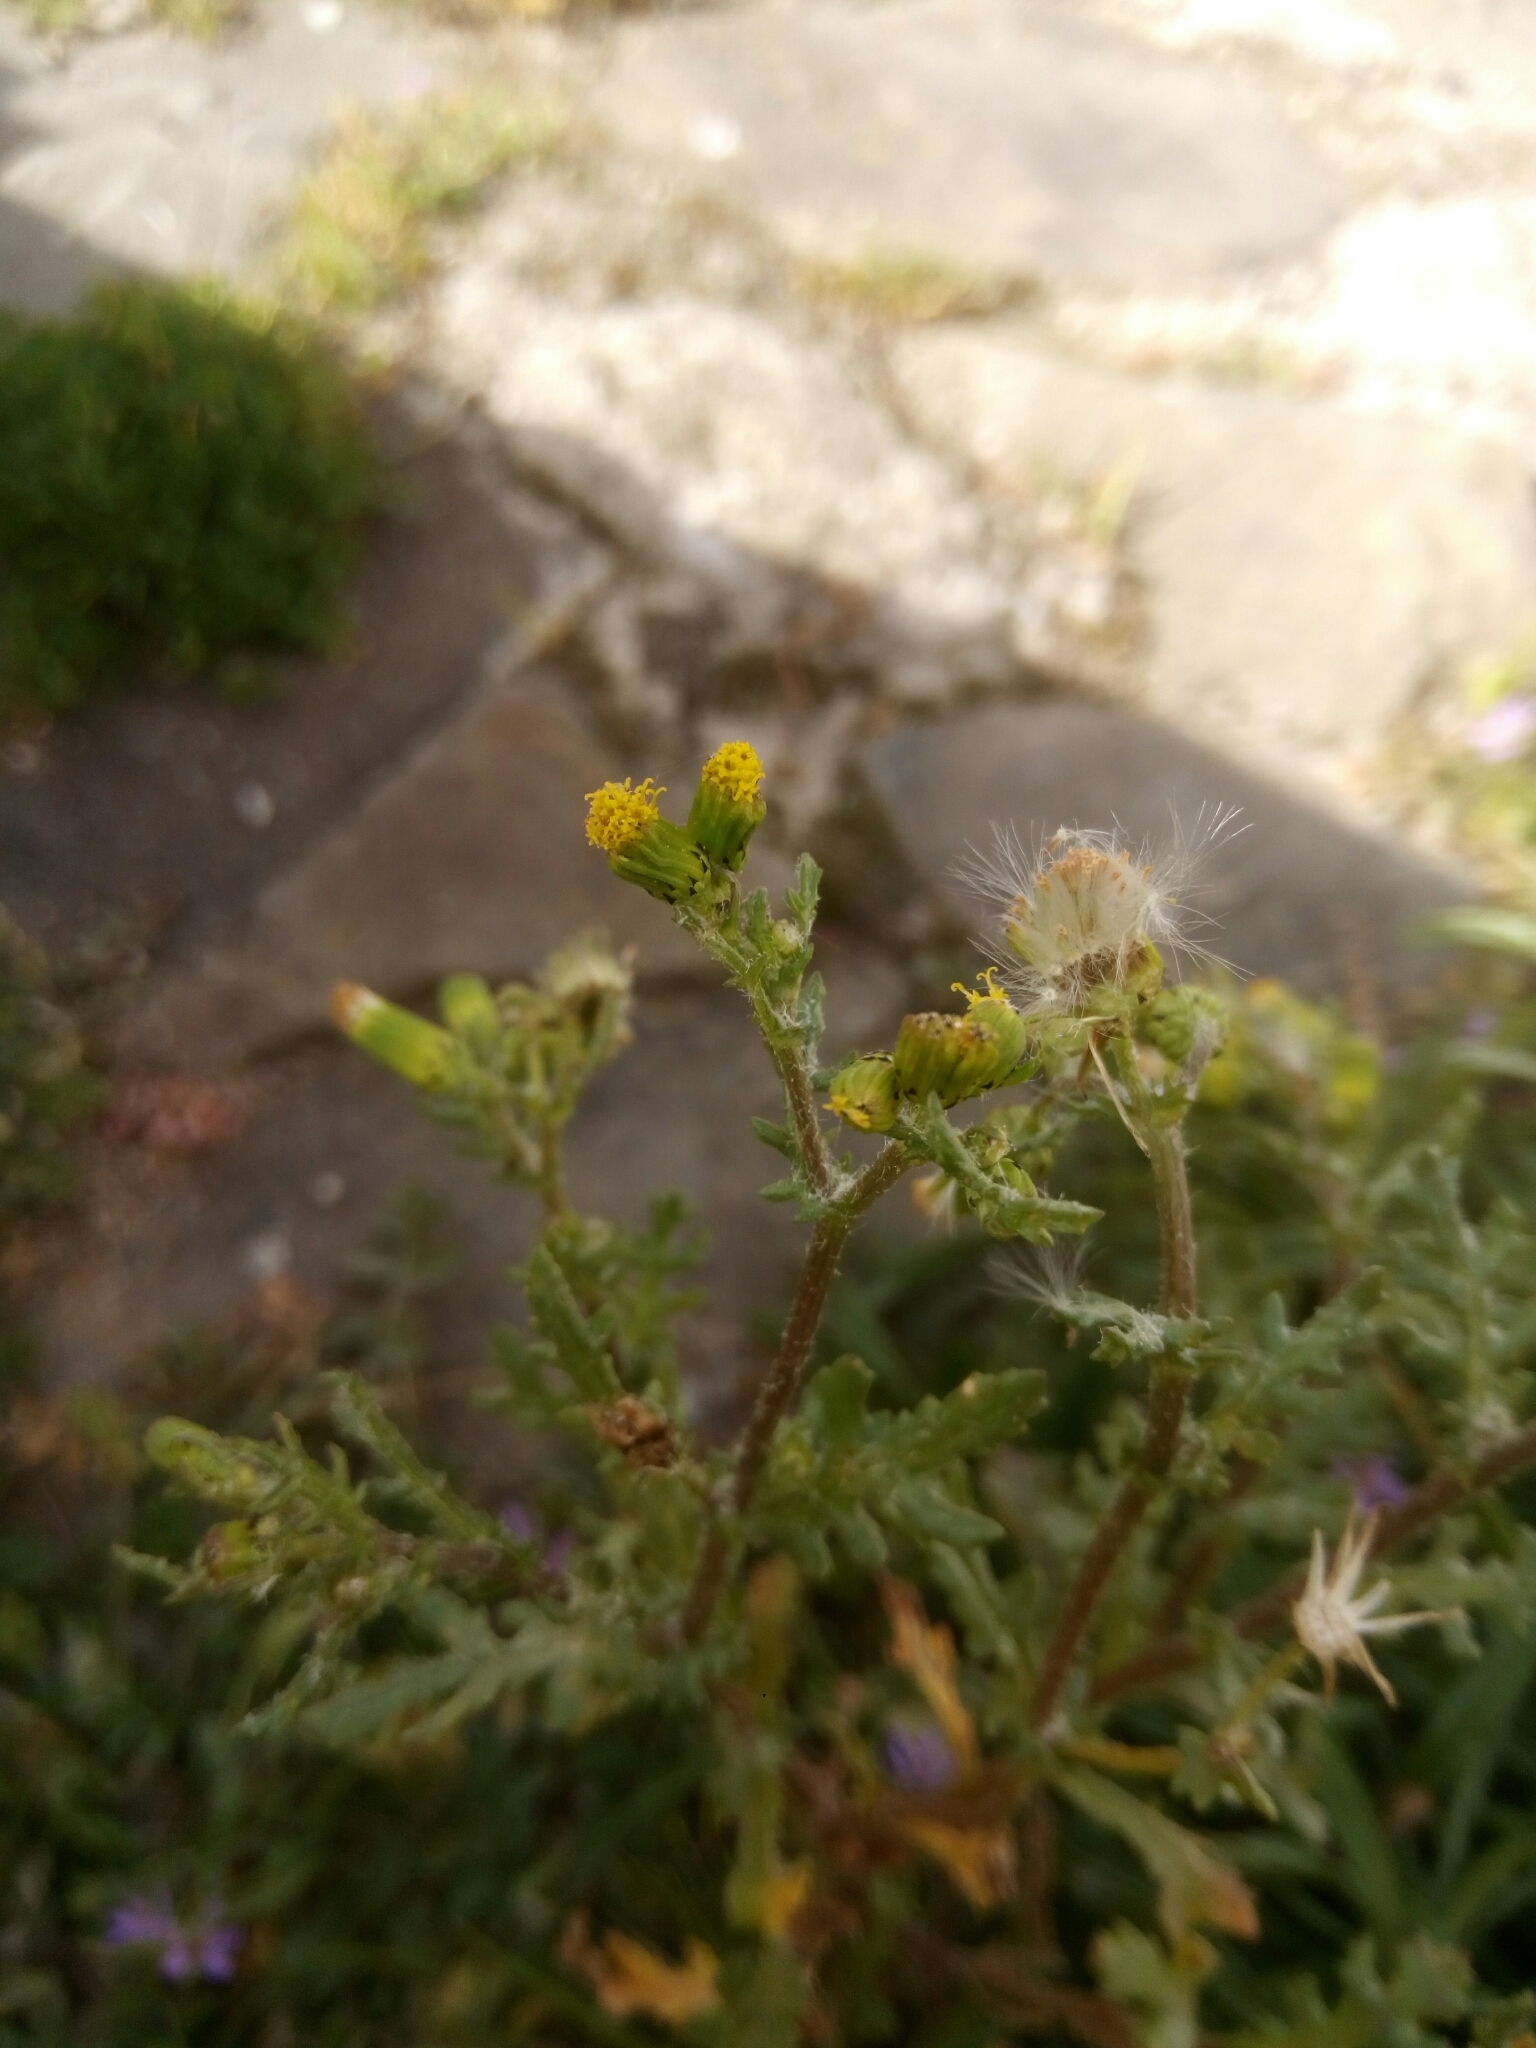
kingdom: Plantae
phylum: Tracheophyta
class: Magnoliopsida
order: Asterales
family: Asteraceae
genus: Senecio
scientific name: Senecio vulgaris
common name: Old-man-in-the-spring
